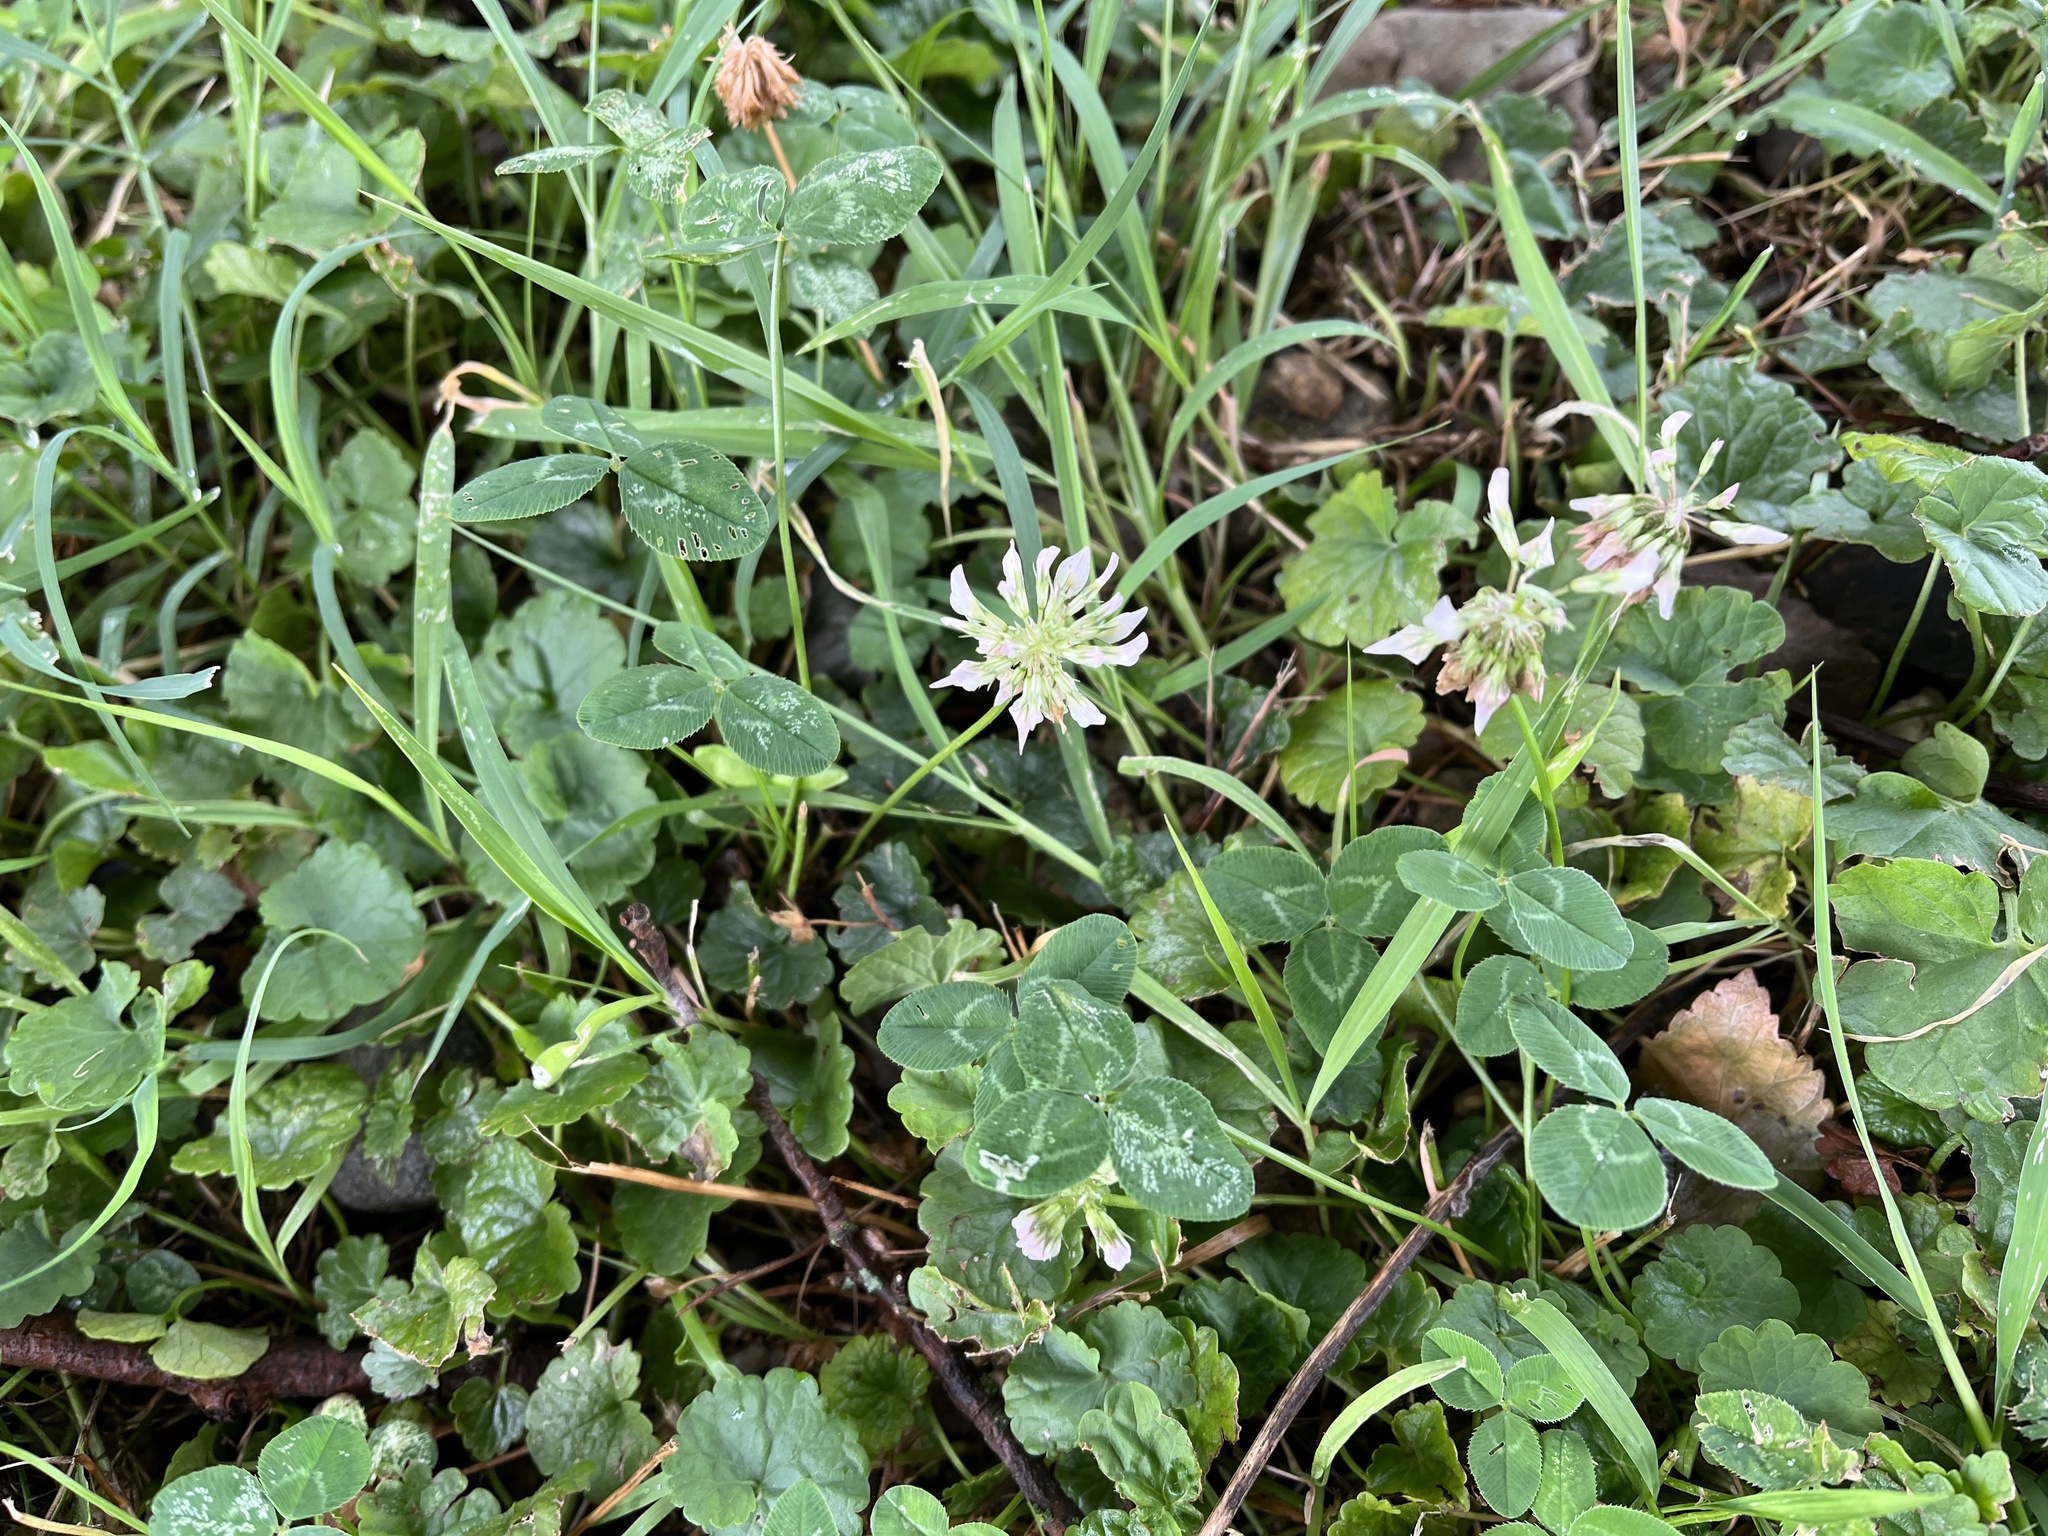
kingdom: Plantae
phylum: Tracheophyta
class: Magnoliopsida
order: Fabales
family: Fabaceae
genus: Trifolium
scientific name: Trifolium repens
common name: White clover
